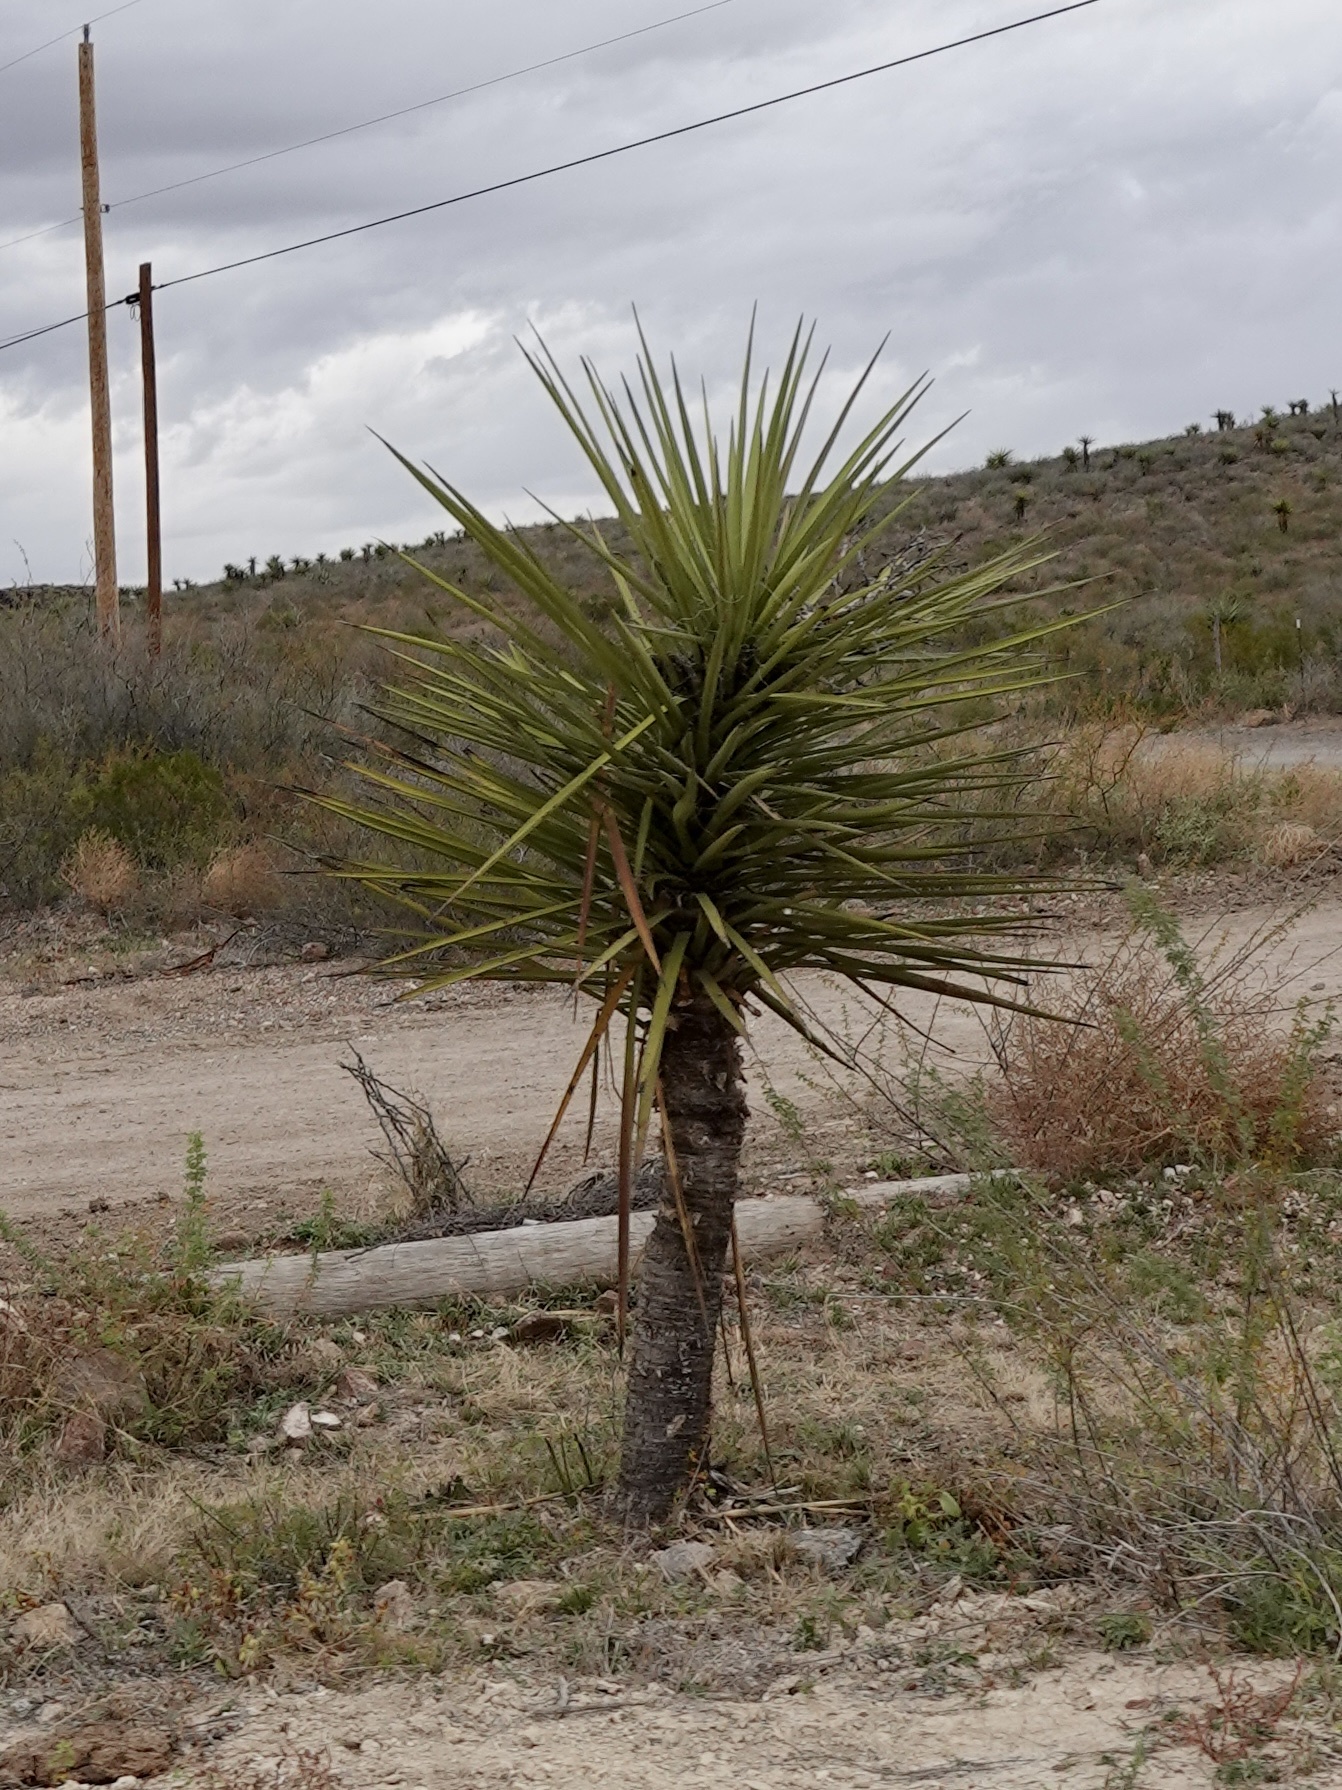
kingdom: Plantae
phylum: Tracheophyta
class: Liliopsida
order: Asparagales
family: Asparagaceae
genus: Yucca
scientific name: Yucca treculiana
